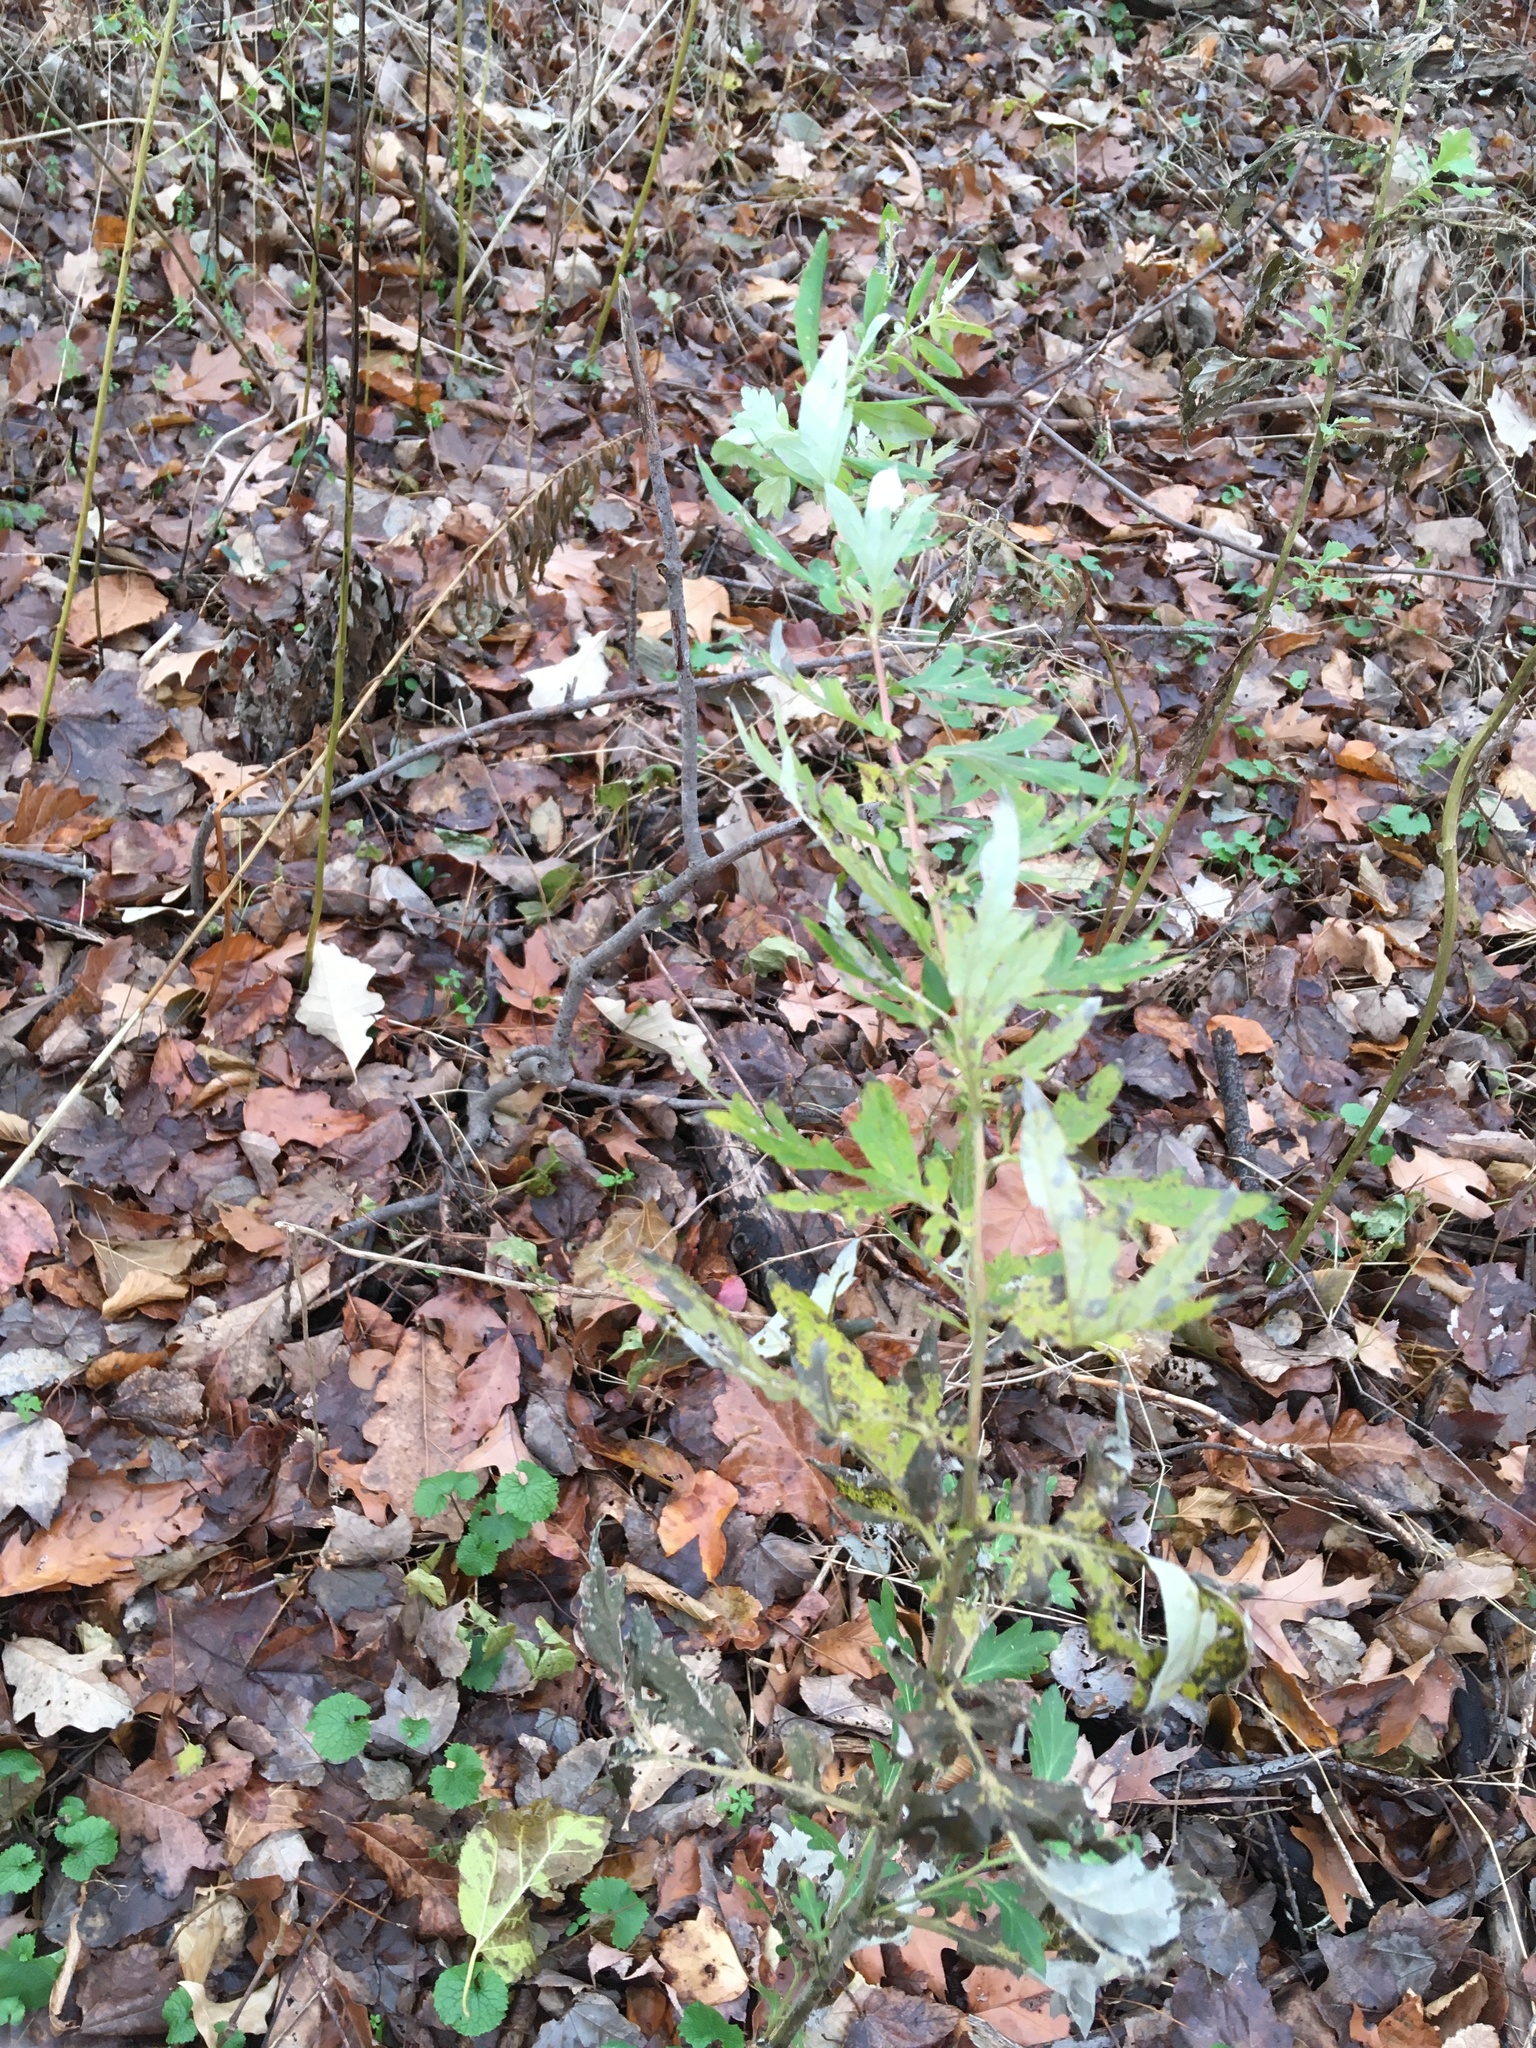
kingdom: Plantae
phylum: Tracheophyta
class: Magnoliopsida
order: Asterales
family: Asteraceae
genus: Artemisia
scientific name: Artemisia vulgaris
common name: Mugwort
